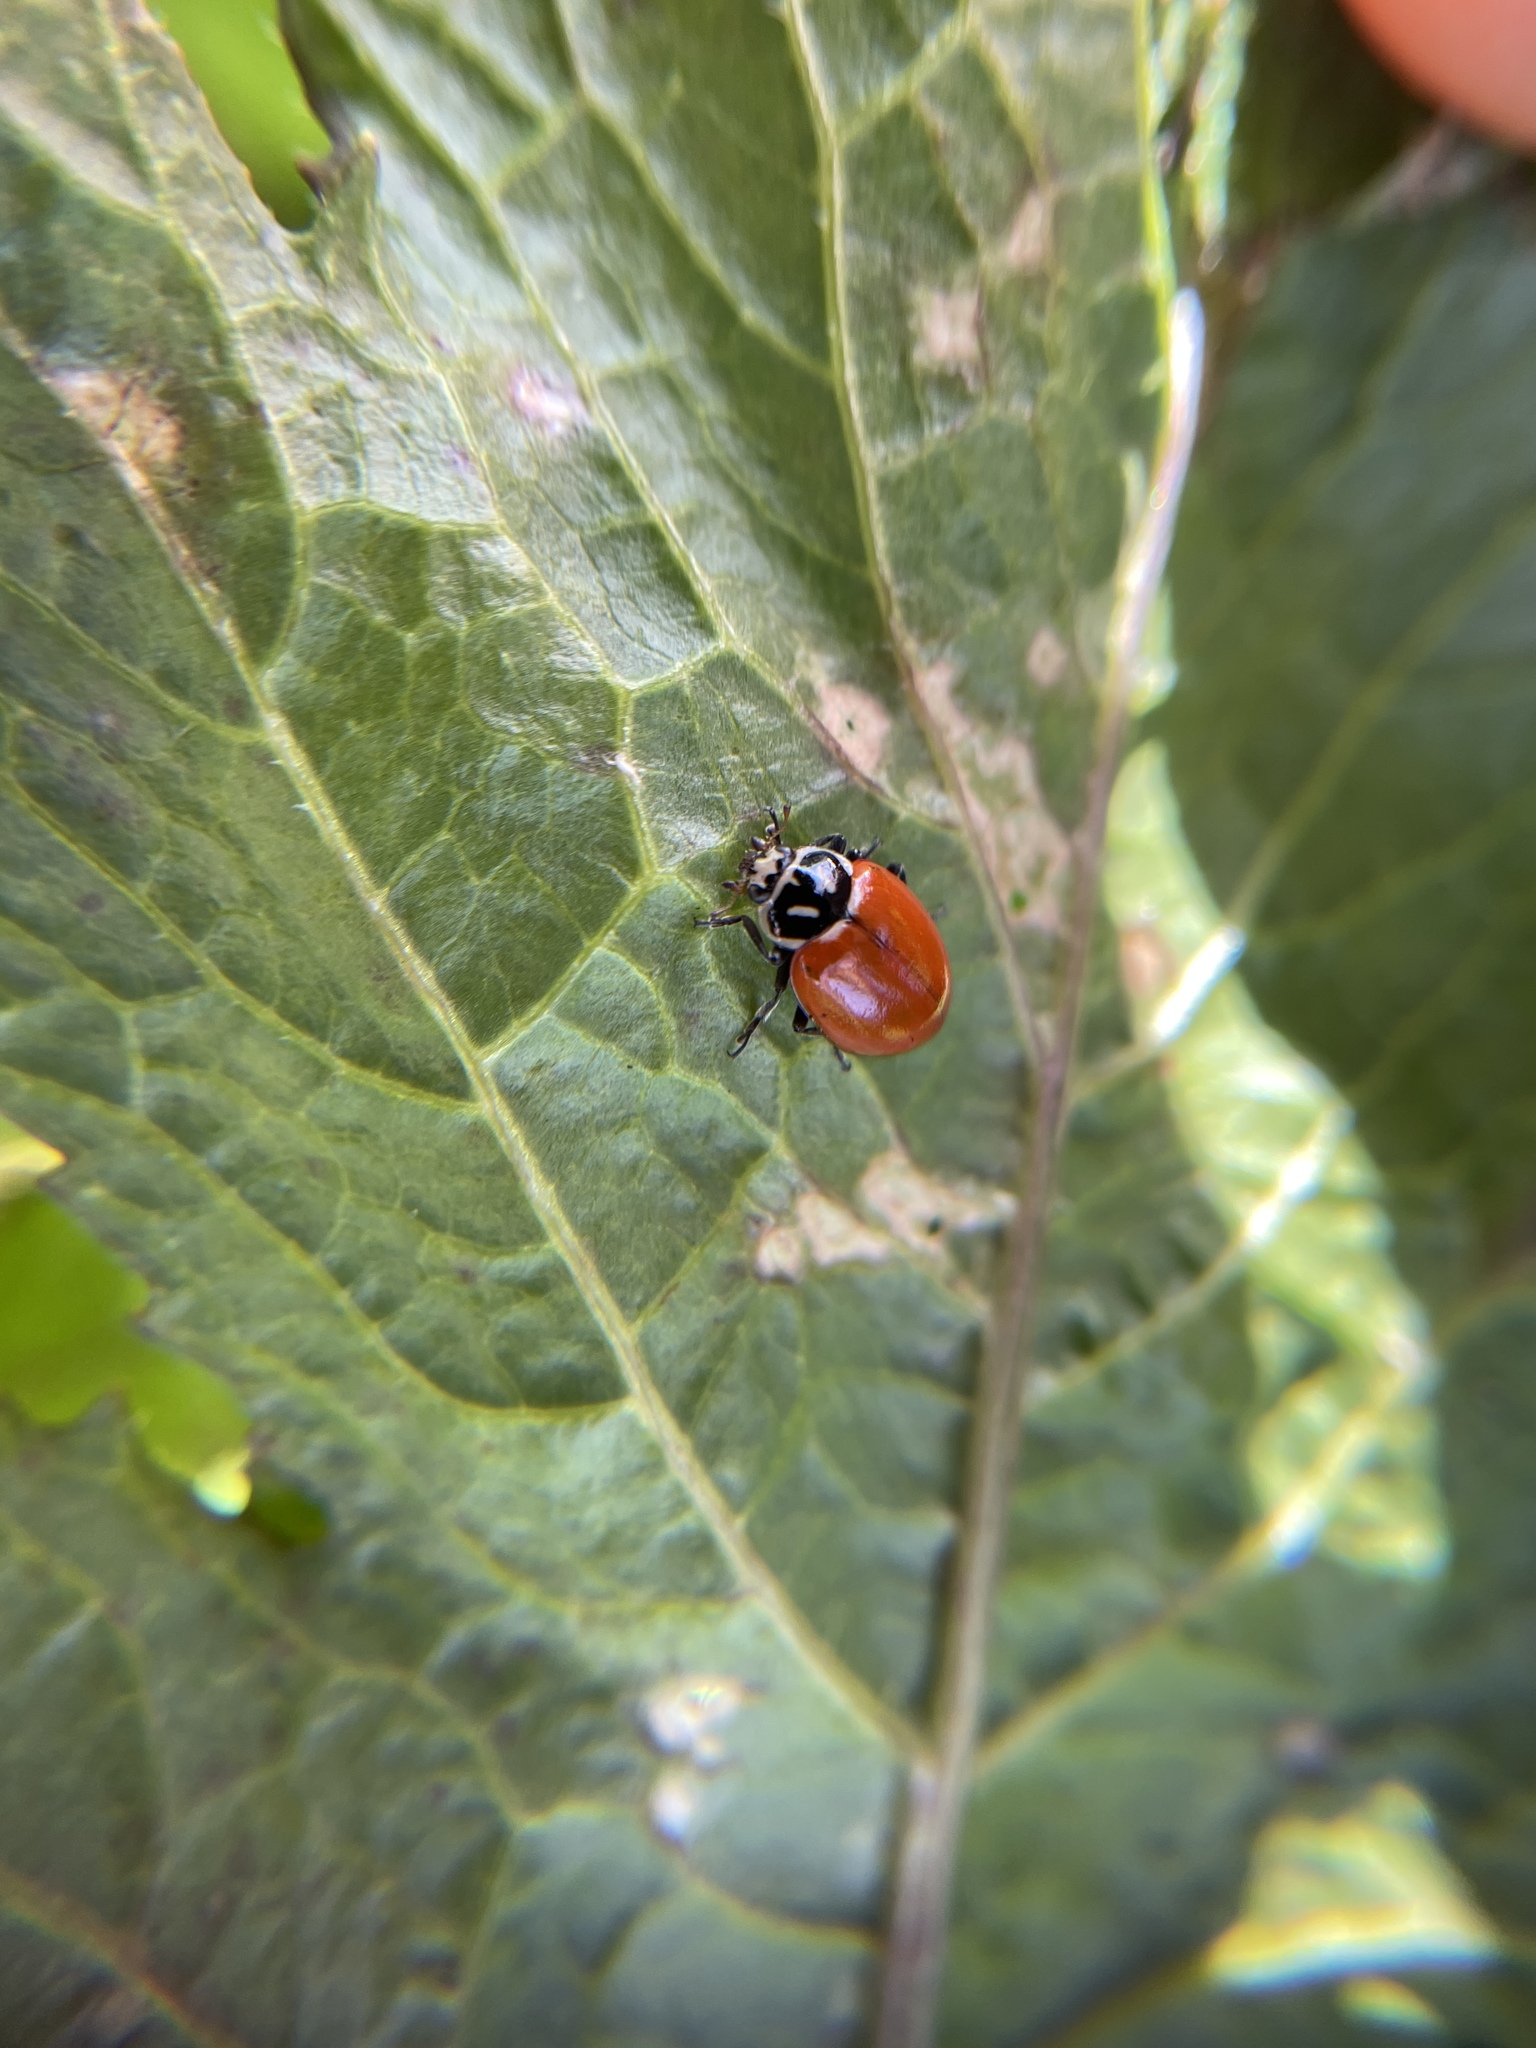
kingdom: Animalia
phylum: Arthropoda
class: Insecta
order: Coleoptera
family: Coccinellidae
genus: Hippodamia
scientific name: Hippodamia convergens
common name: Convergent lady beetle
